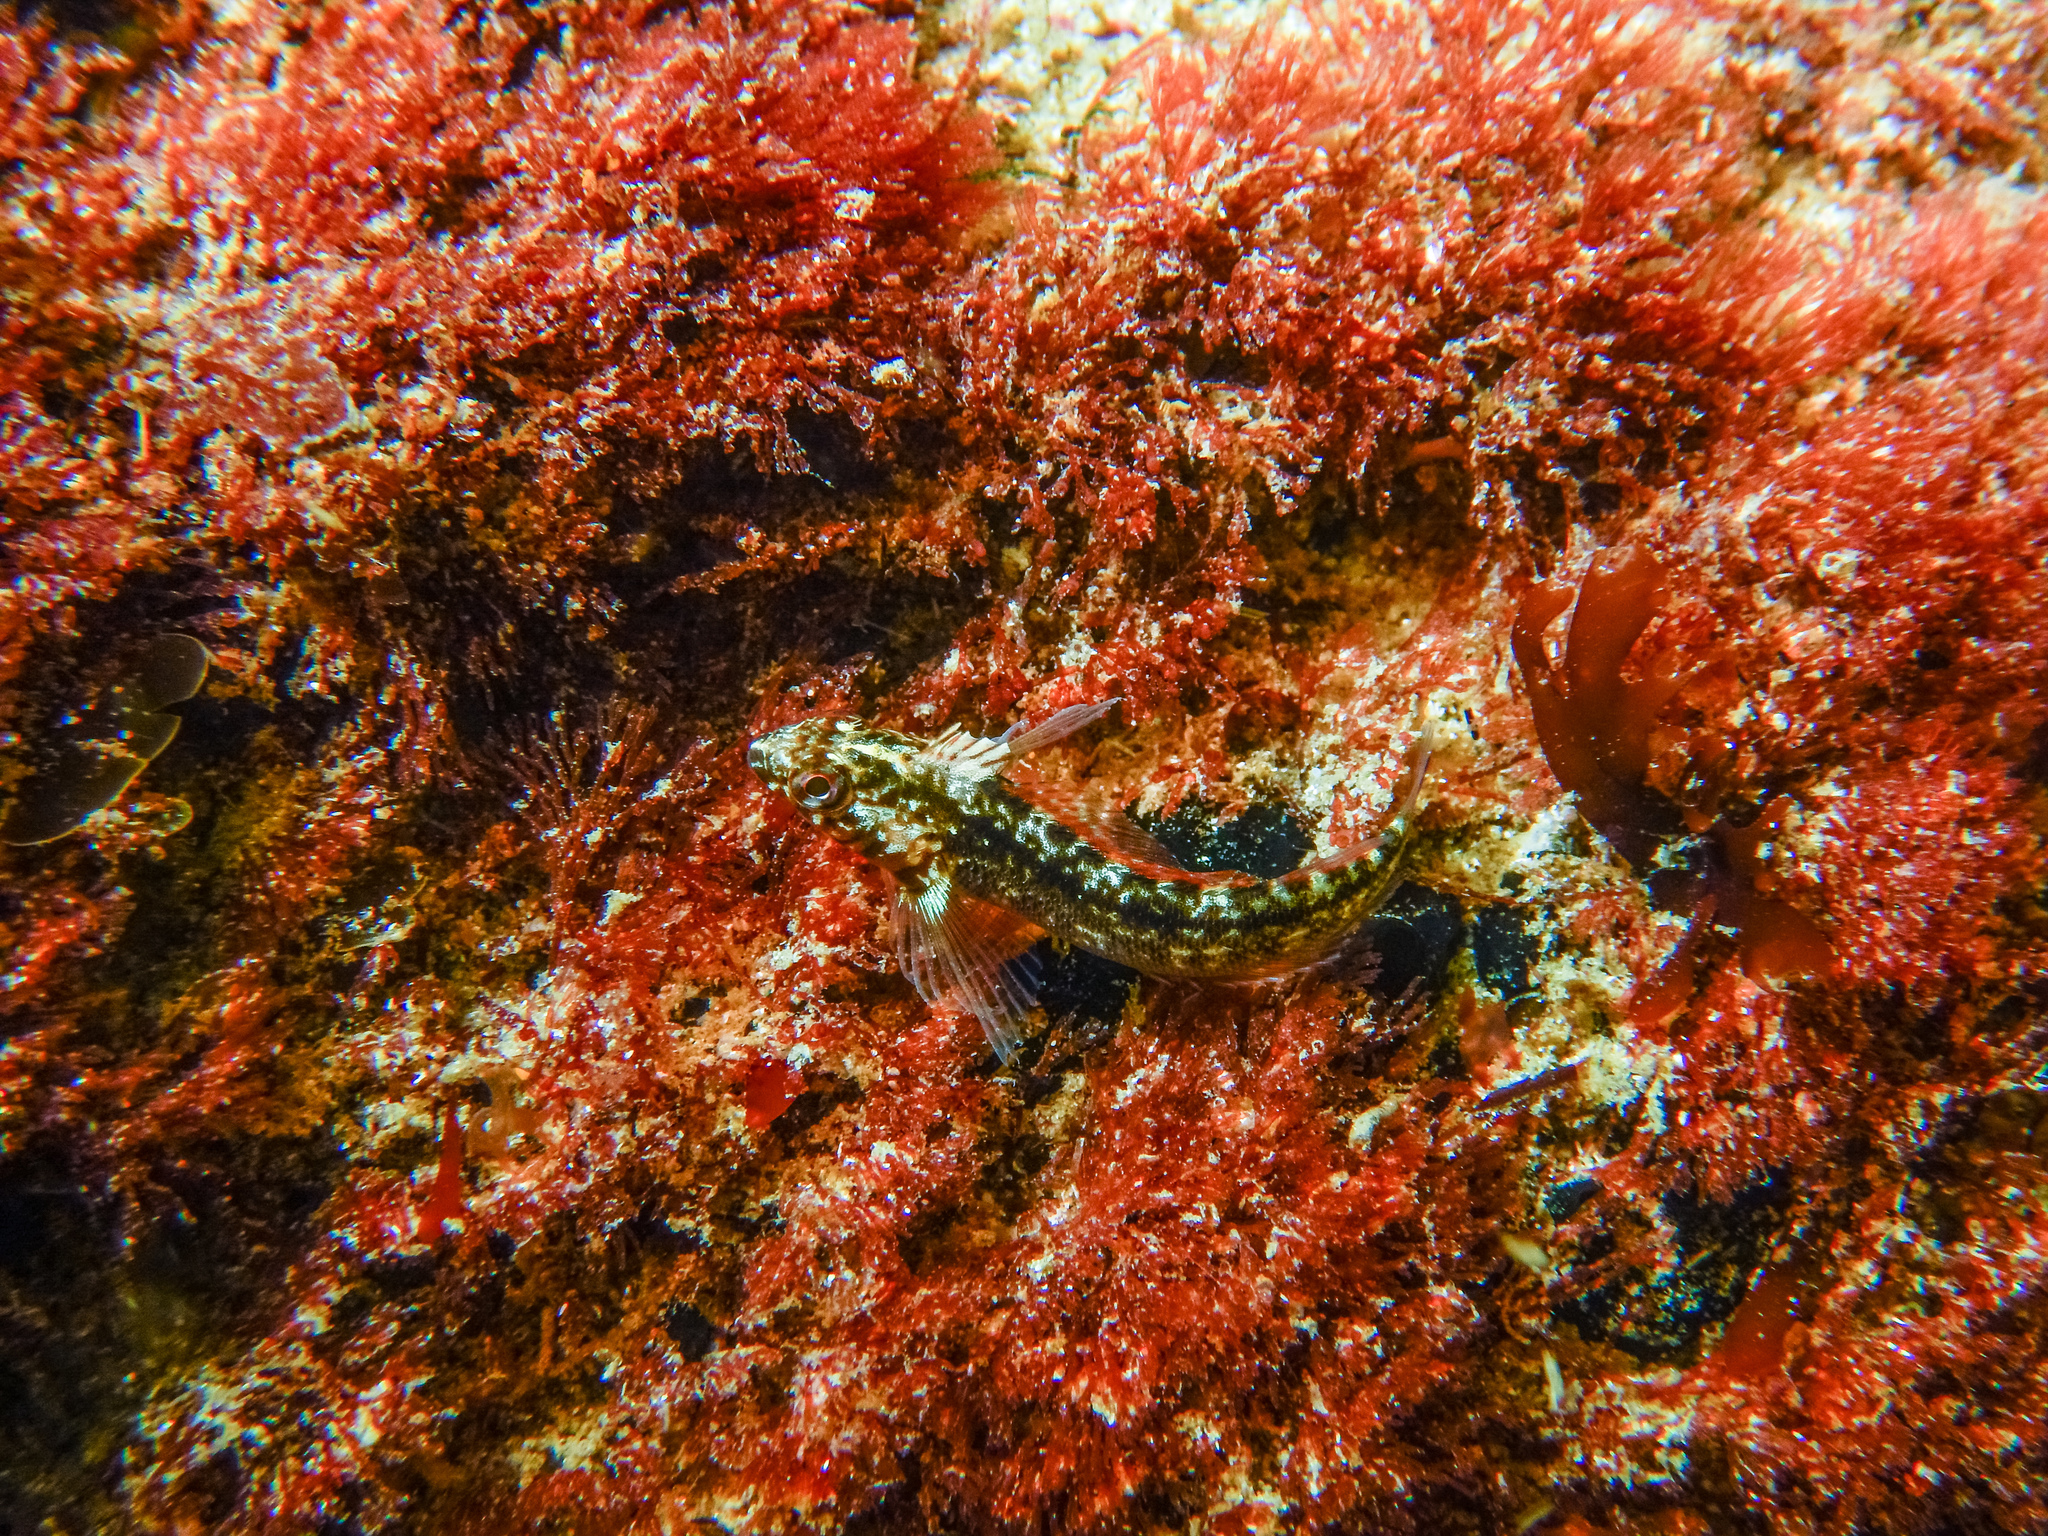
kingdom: Animalia
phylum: Chordata
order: Perciformes
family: Tripterygiidae
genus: Forsterygion
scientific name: Forsterygion lapillum
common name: Common triplefin
